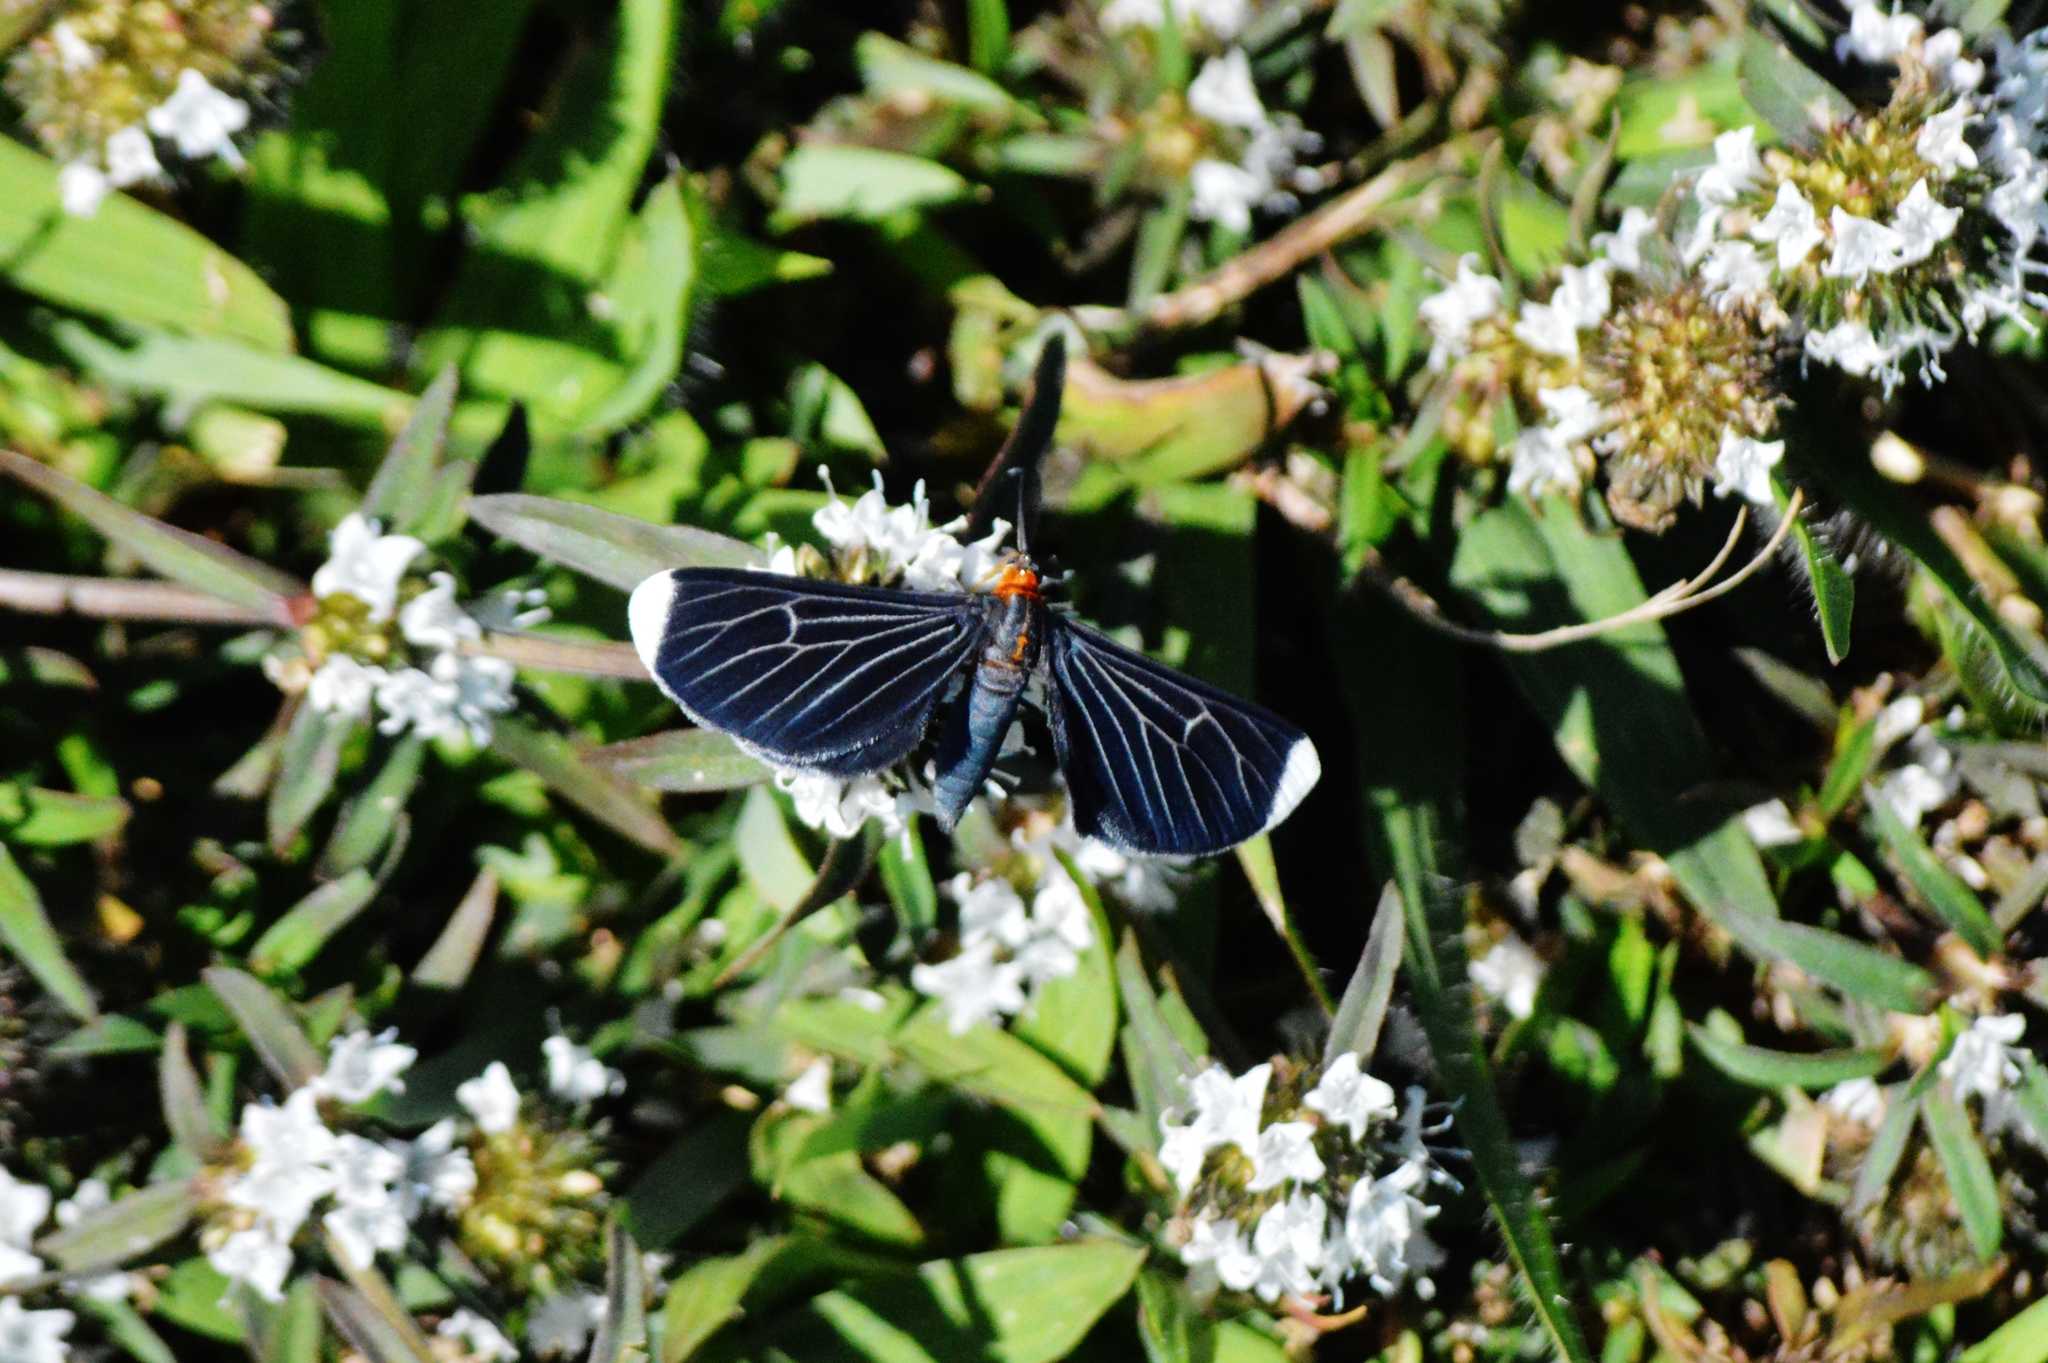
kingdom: Animalia
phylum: Arthropoda
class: Insecta
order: Lepidoptera
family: Geometridae
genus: Melanchroia
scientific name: Melanchroia chephise
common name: White-tipped black
